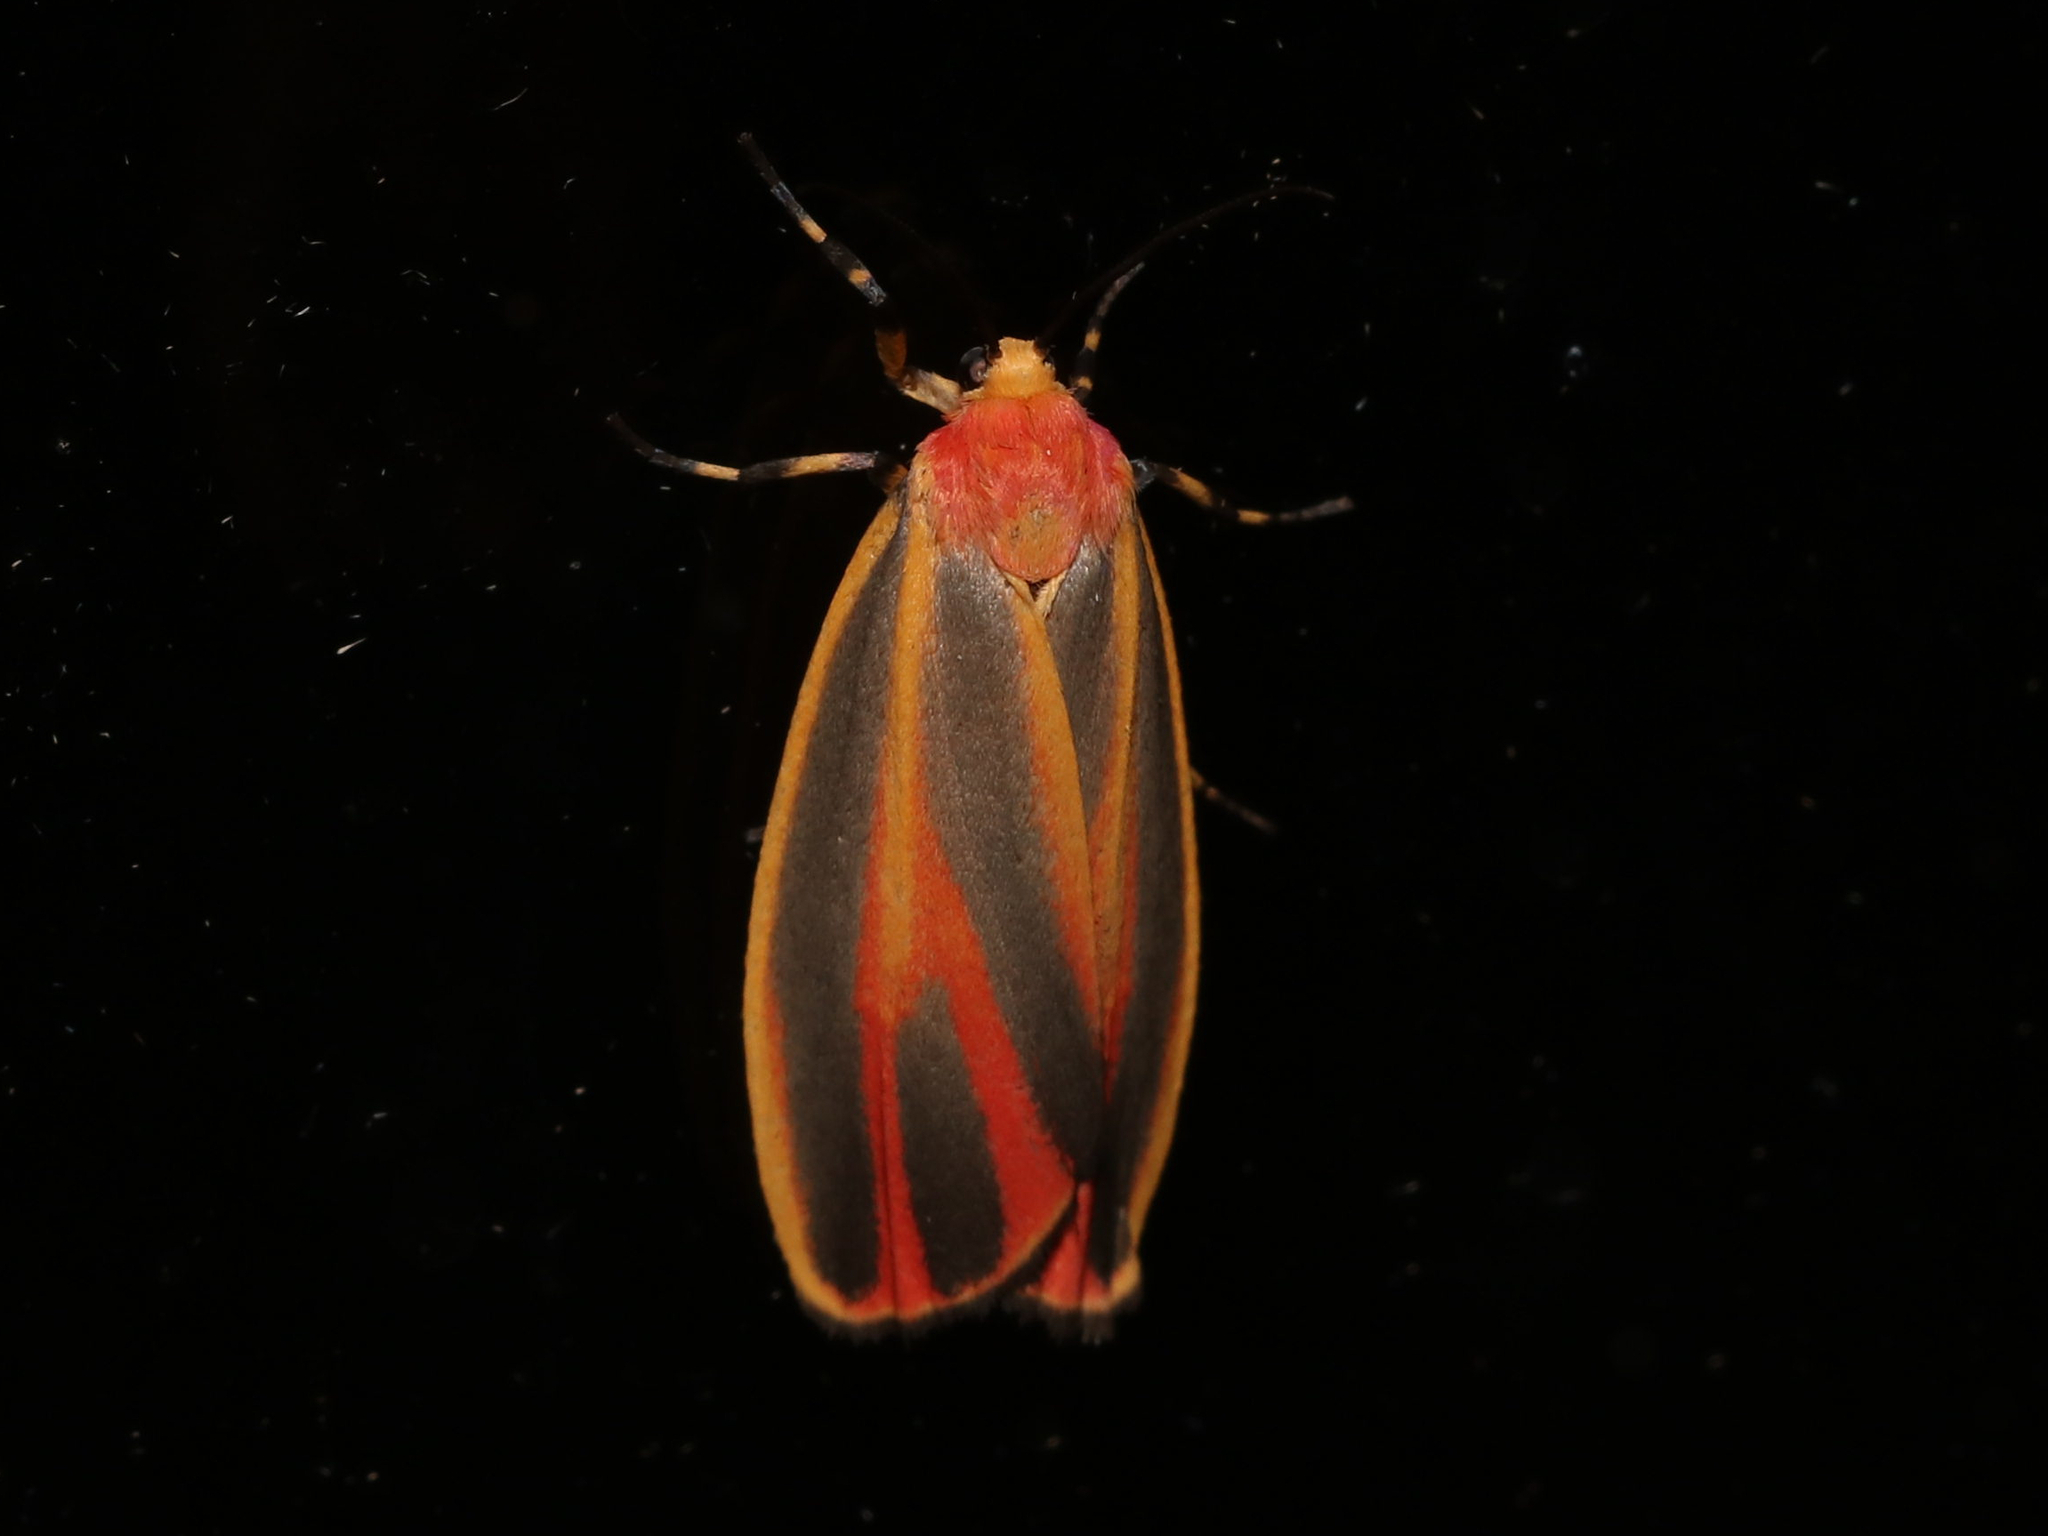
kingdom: Animalia
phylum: Arthropoda
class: Insecta
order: Lepidoptera
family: Erebidae
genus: Hypoprepia
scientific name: Hypoprepia fucosa
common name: Painted lichen moth
